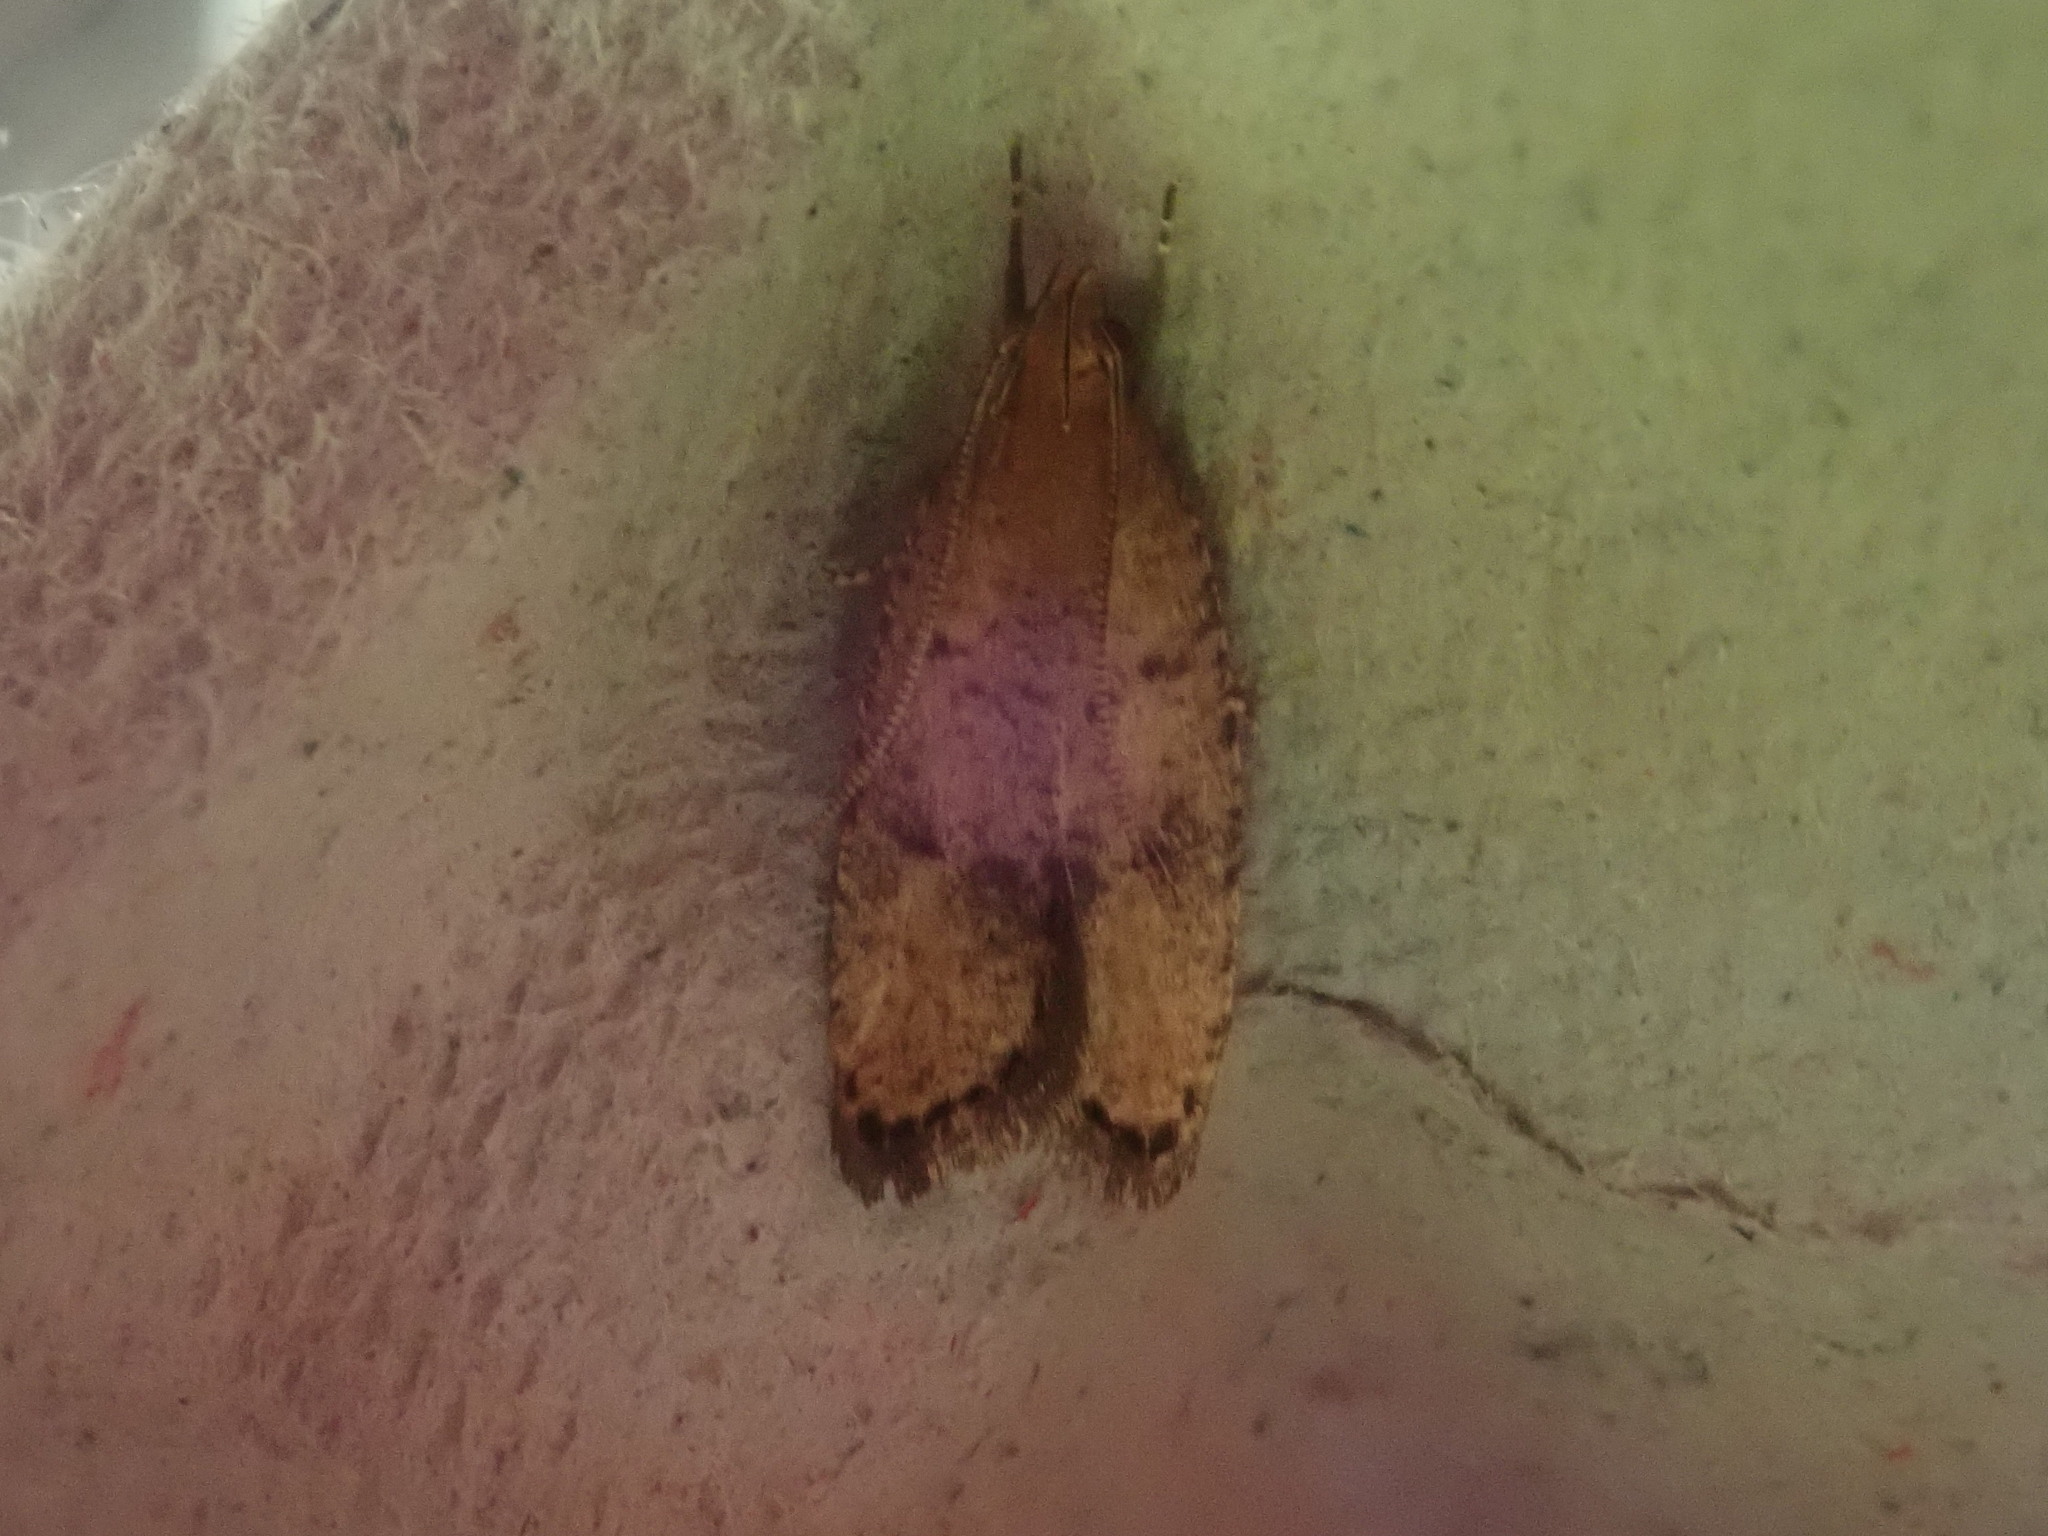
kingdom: Animalia
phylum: Arthropoda
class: Insecta
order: Lepidoptera
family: Depressariidae
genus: Psilocorsis
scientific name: Psilocorsis quercicella
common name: Oak leaftier moth
